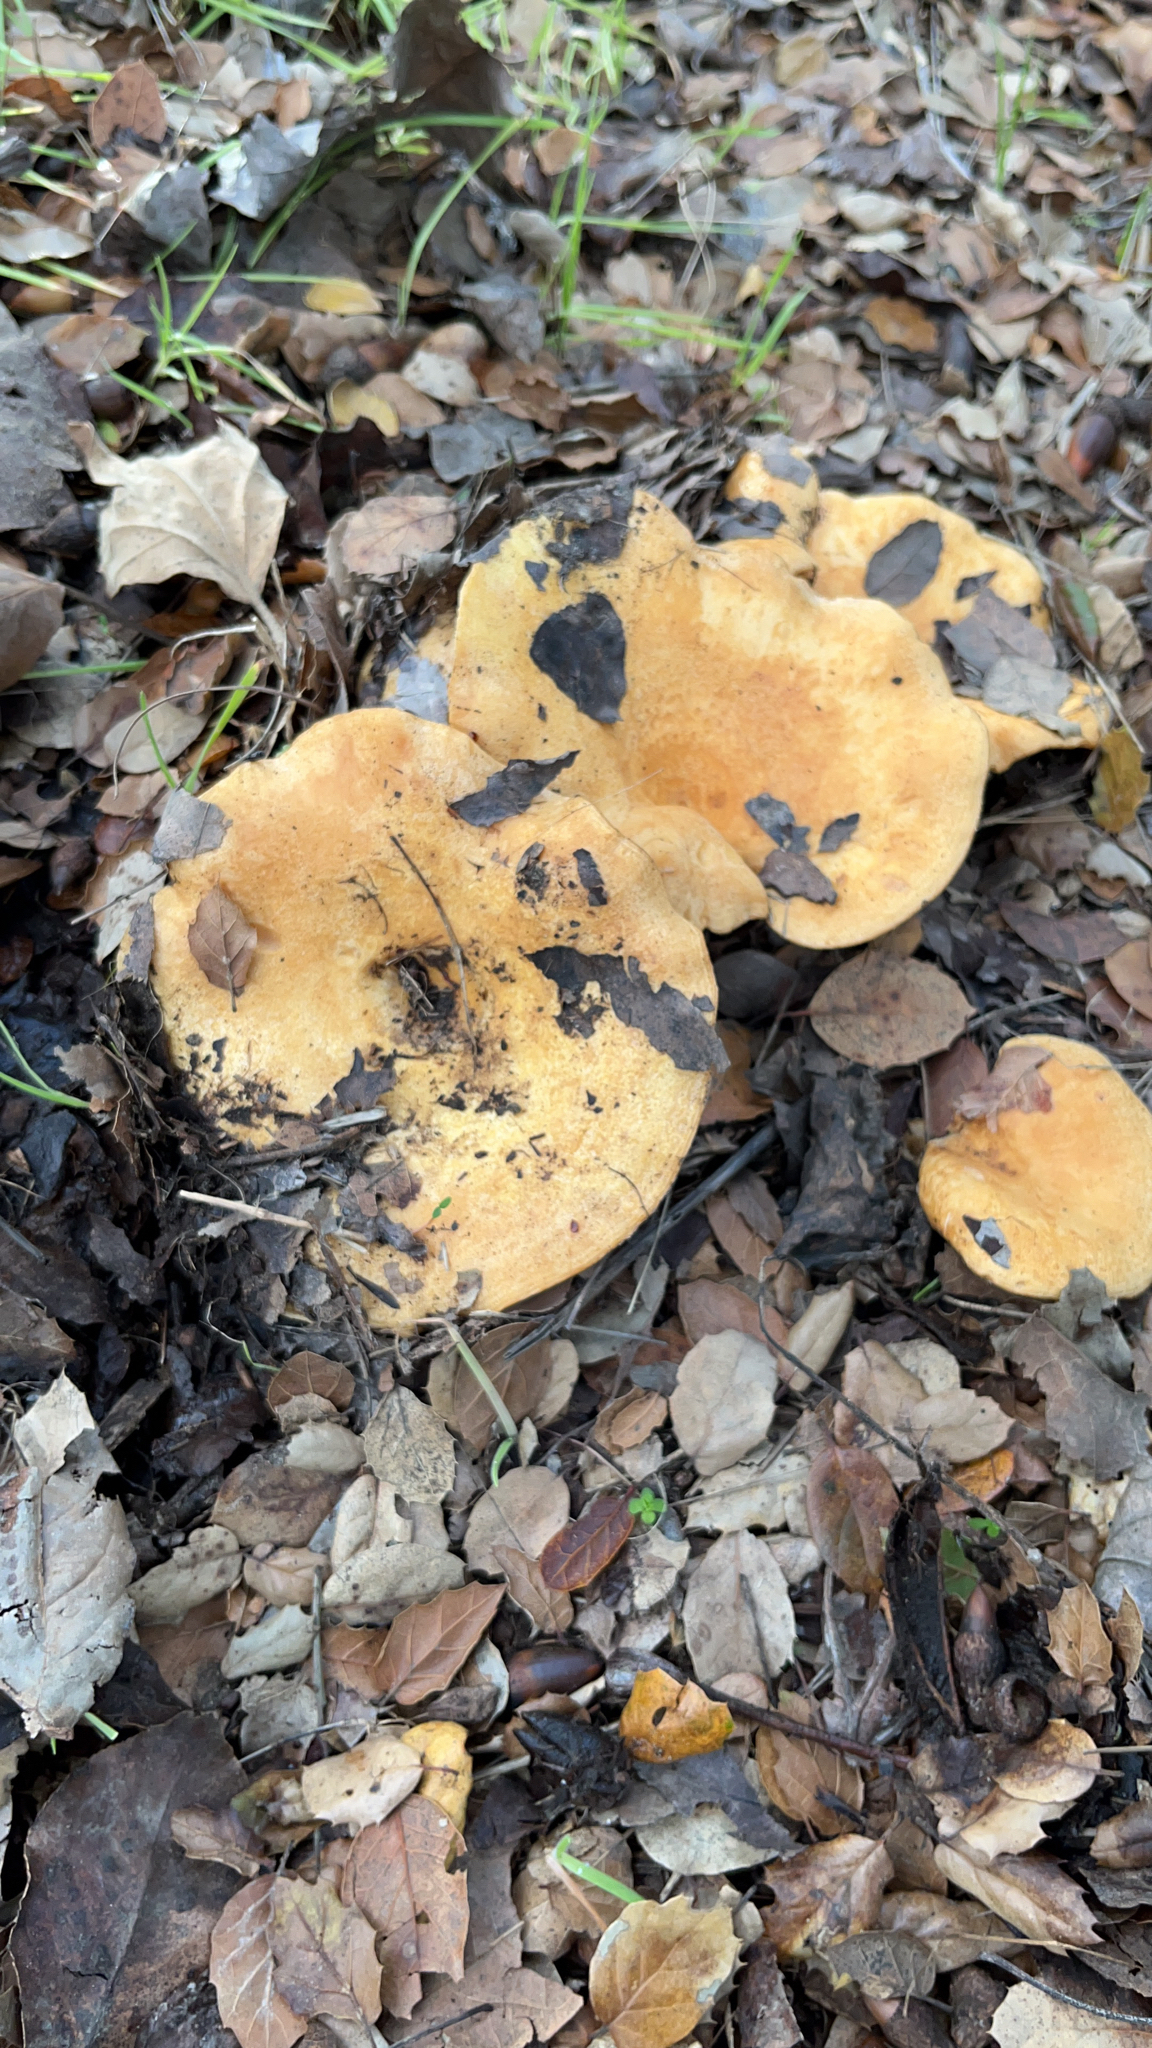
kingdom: Fungi
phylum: Basidiomycota
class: Agaricomycetes
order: Russulales
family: Russulaceae
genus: Lactarius
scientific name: Lactarius alnicola
